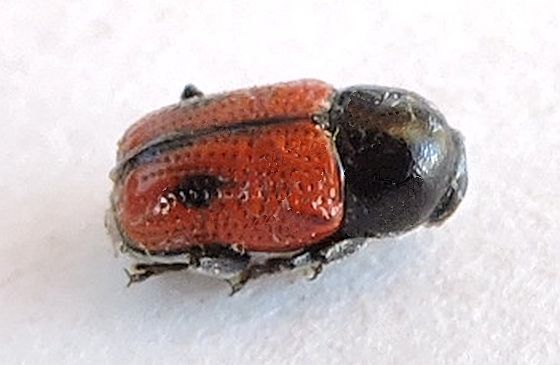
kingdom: Animalia
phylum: Arthropoda
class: Insecta
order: Coleoptera
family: Chrysomelidae
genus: Cryptocephalus
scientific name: Cryptocephalus pubiventris
